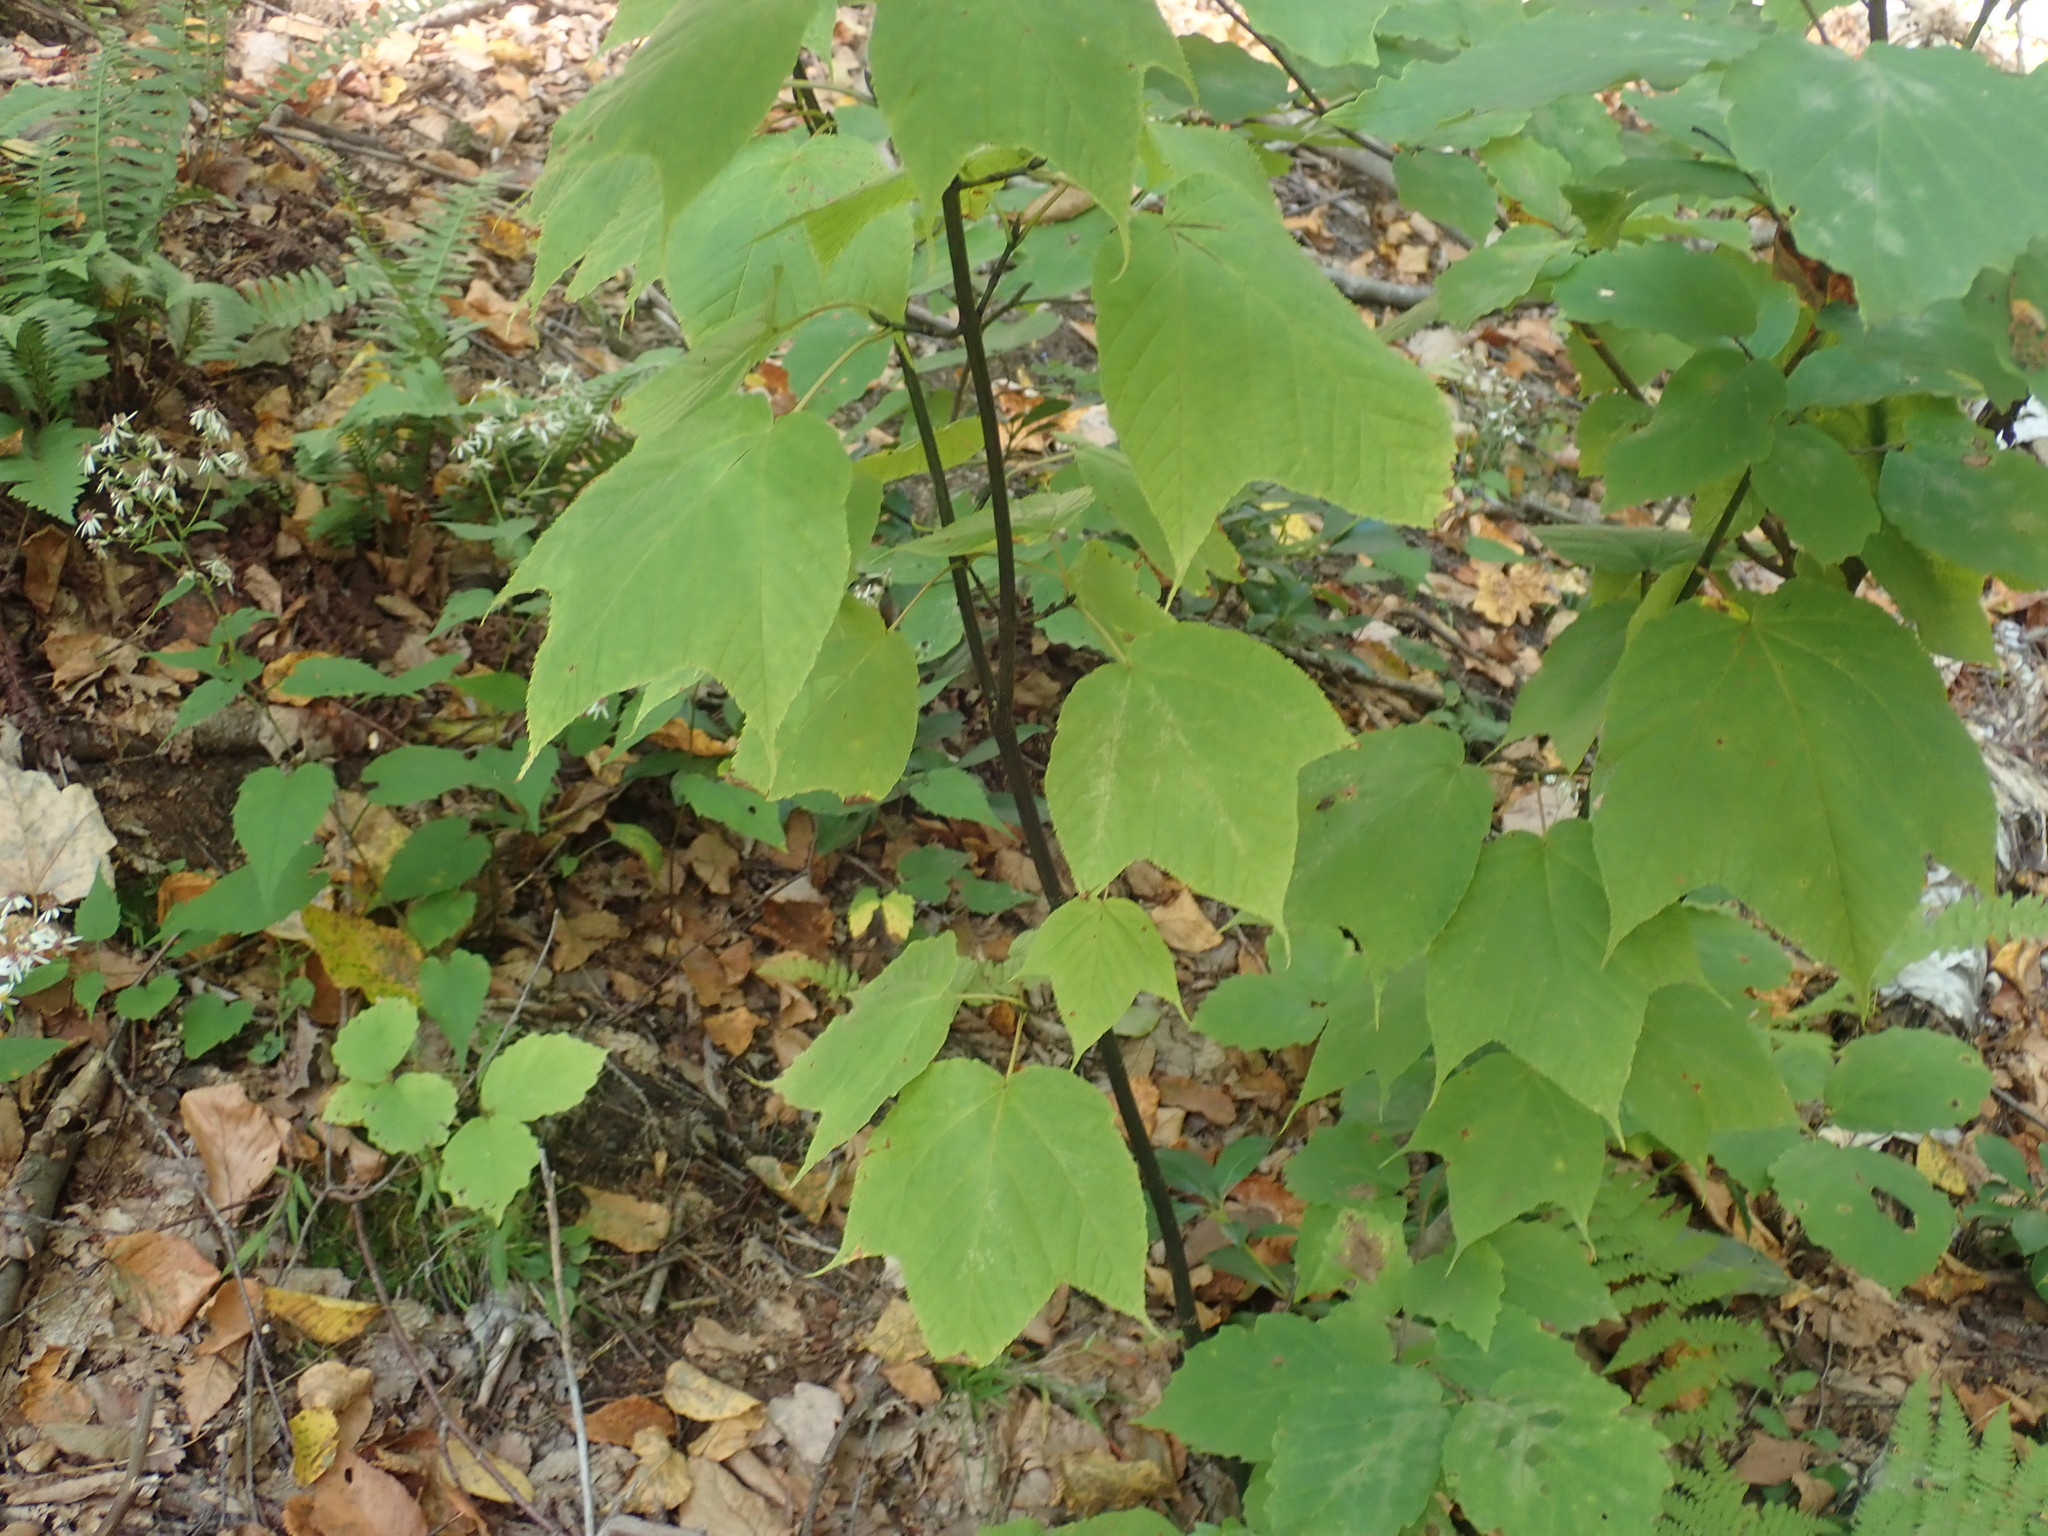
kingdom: Plantae
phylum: Tracheophyta
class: Magnoliopsida
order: Sapindales
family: Sapindaceae
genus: Acer
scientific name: Acer pensylvanicum
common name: Moosewood
